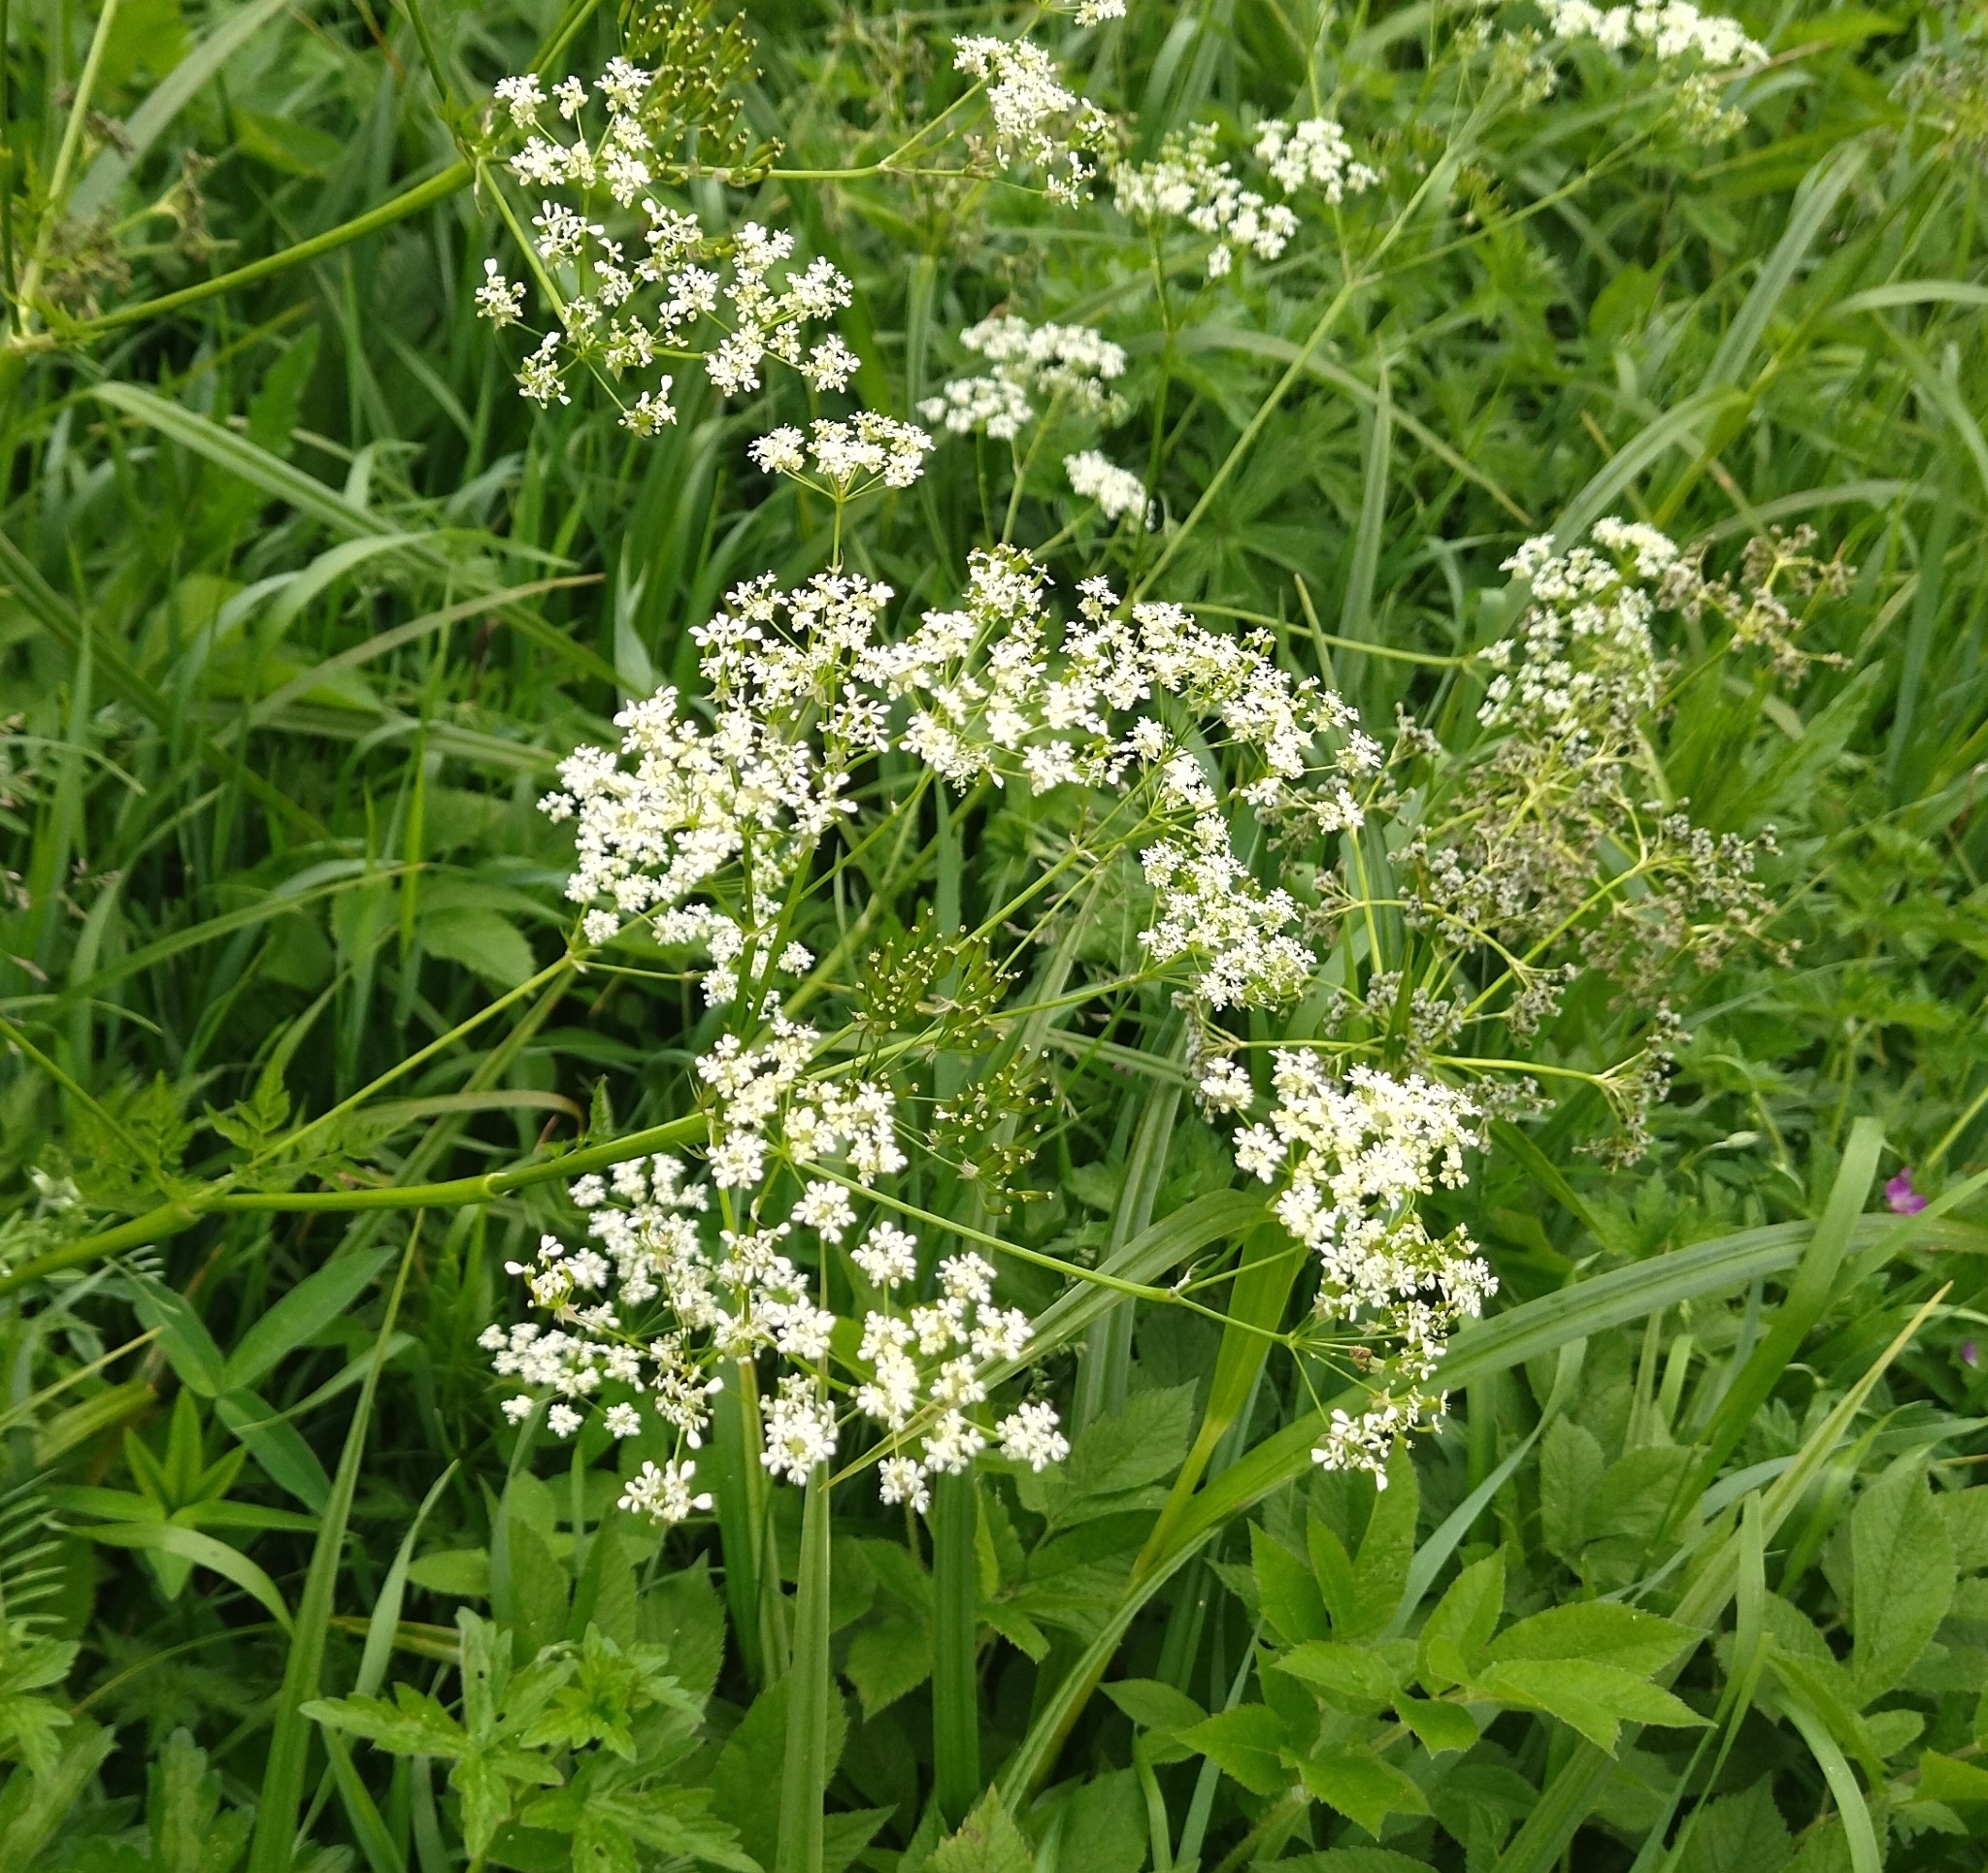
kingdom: Plantae
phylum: Tracheophyta
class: Magnoliopsida
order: Apiales
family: Apiaceae
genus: Anthriscus
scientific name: Anthriscus sylvestris
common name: Cow parsley
